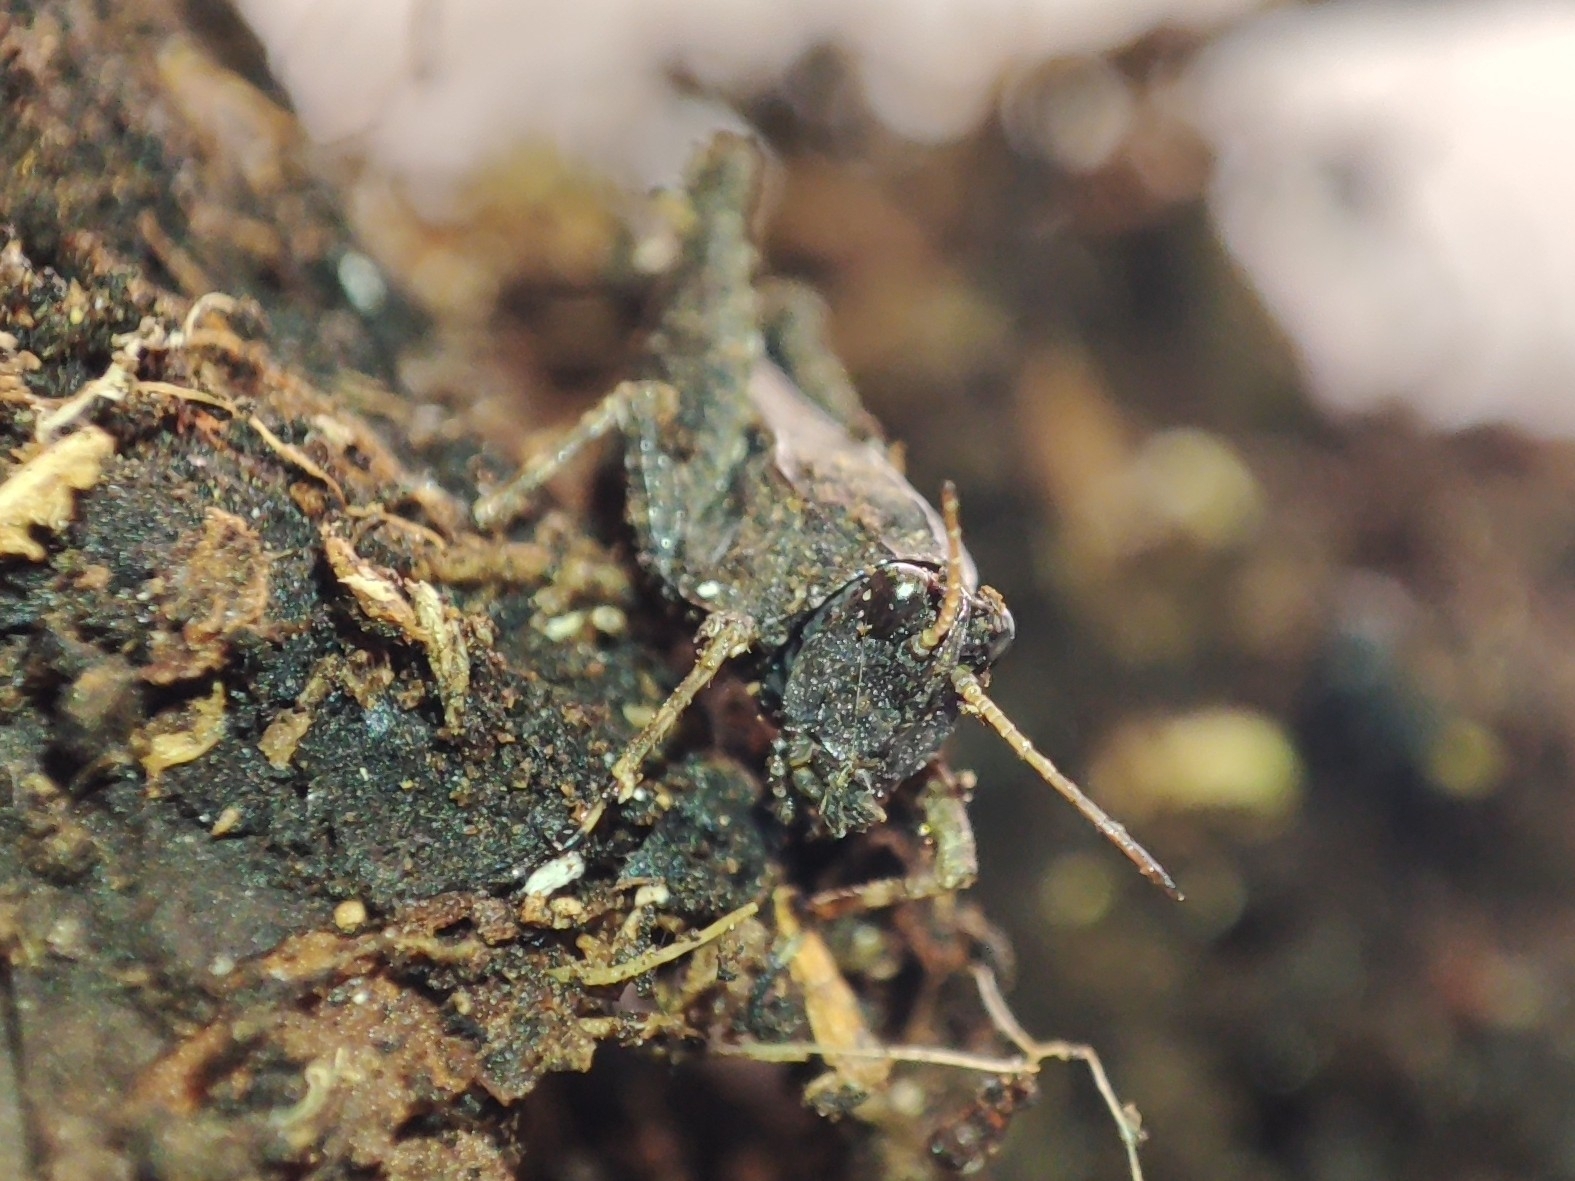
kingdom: Animalia
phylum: Arthropoda
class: Insecta
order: Orthoptera
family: Tetrigidae
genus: Tetrix
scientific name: Tetrix subulata
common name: Slender ground-hopper
